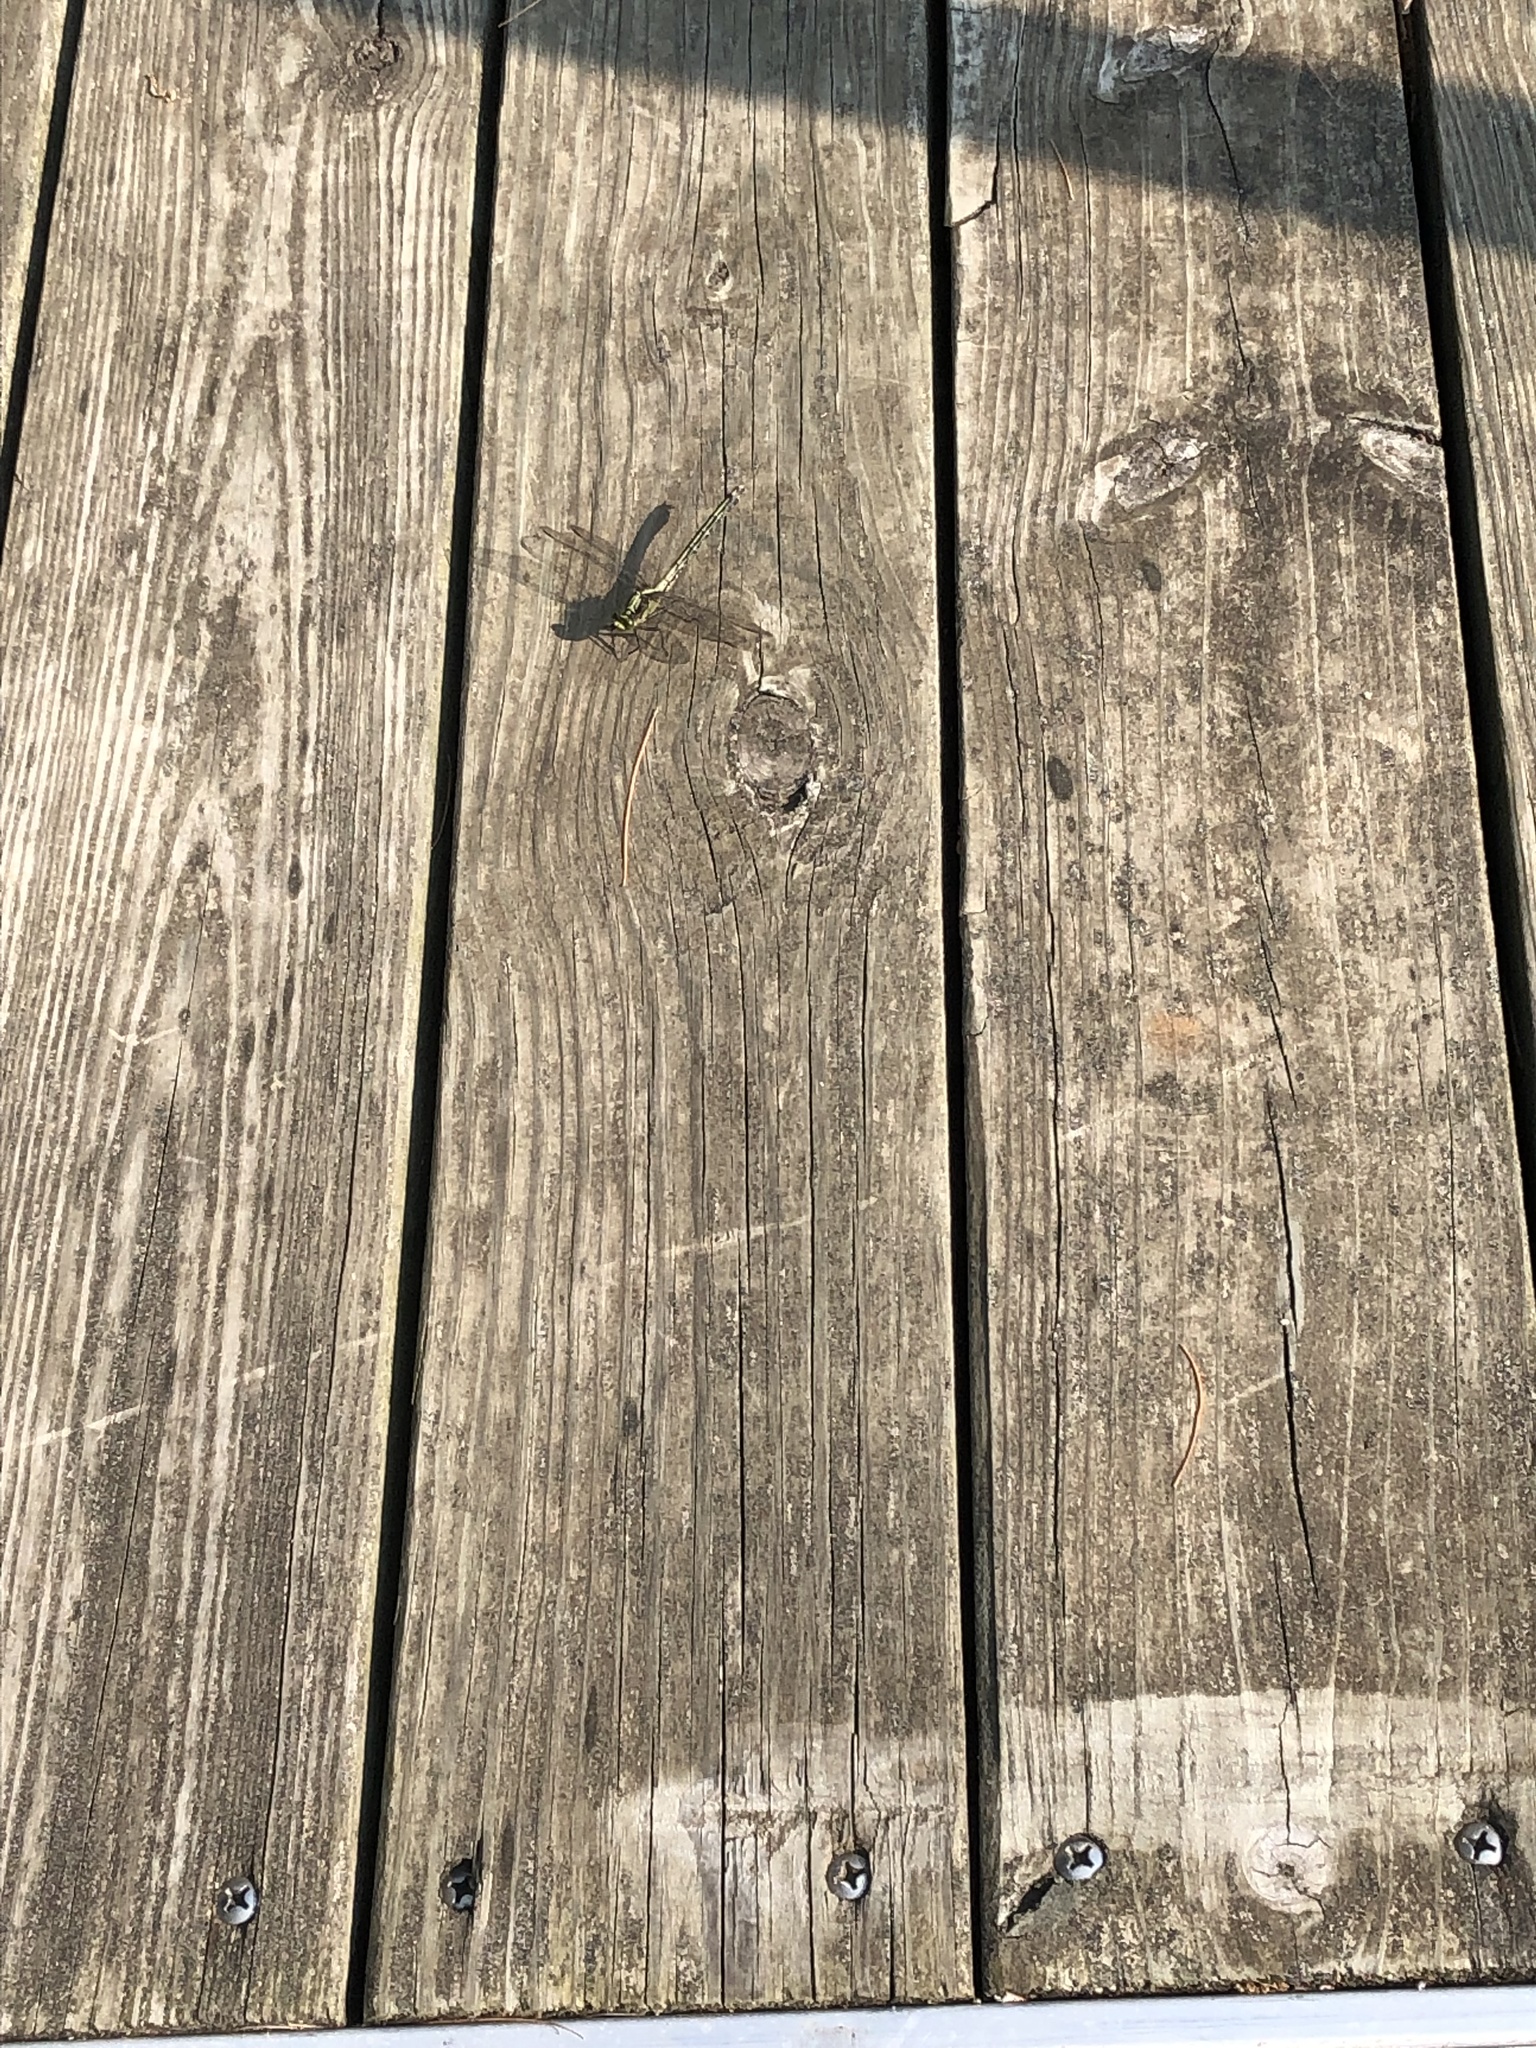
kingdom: Animalia
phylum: Arthropoda
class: Insecta
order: Odonata
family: Gomphidae
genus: Dromogomphus
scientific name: Dromogomphus spinosus
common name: Black-shouldered spinyleg
